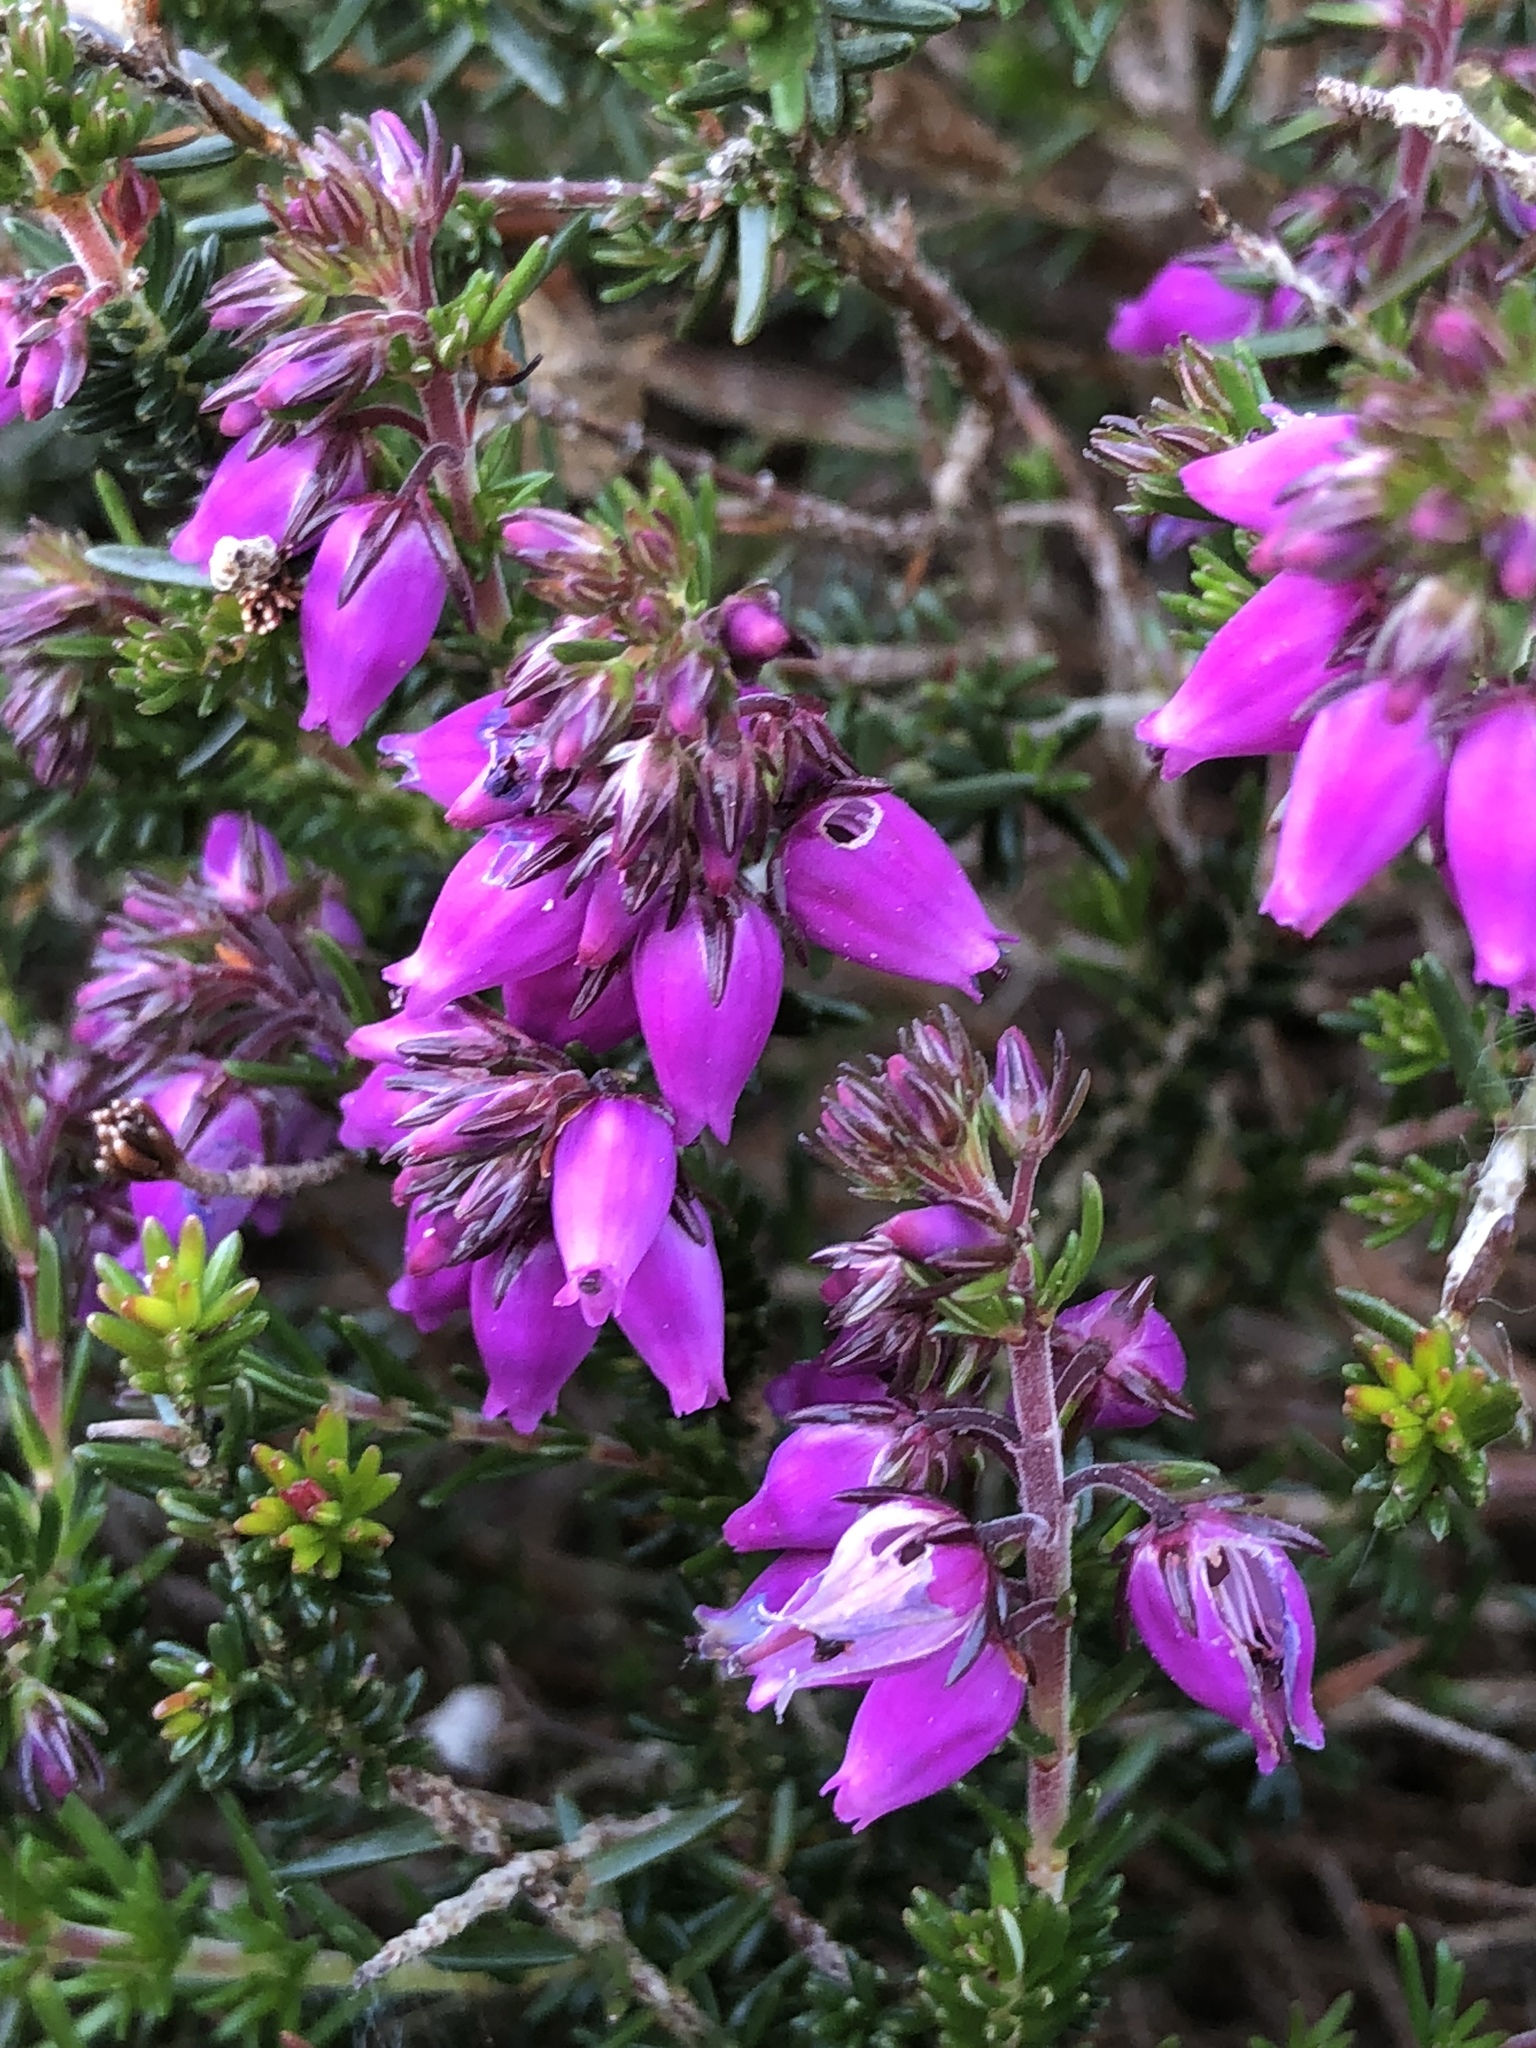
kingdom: Plantae
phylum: Tracheophyta
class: Magnoliopsida
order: Ericales
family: Ericaceae
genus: Erica
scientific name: Erica cinerea
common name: Bell heather
